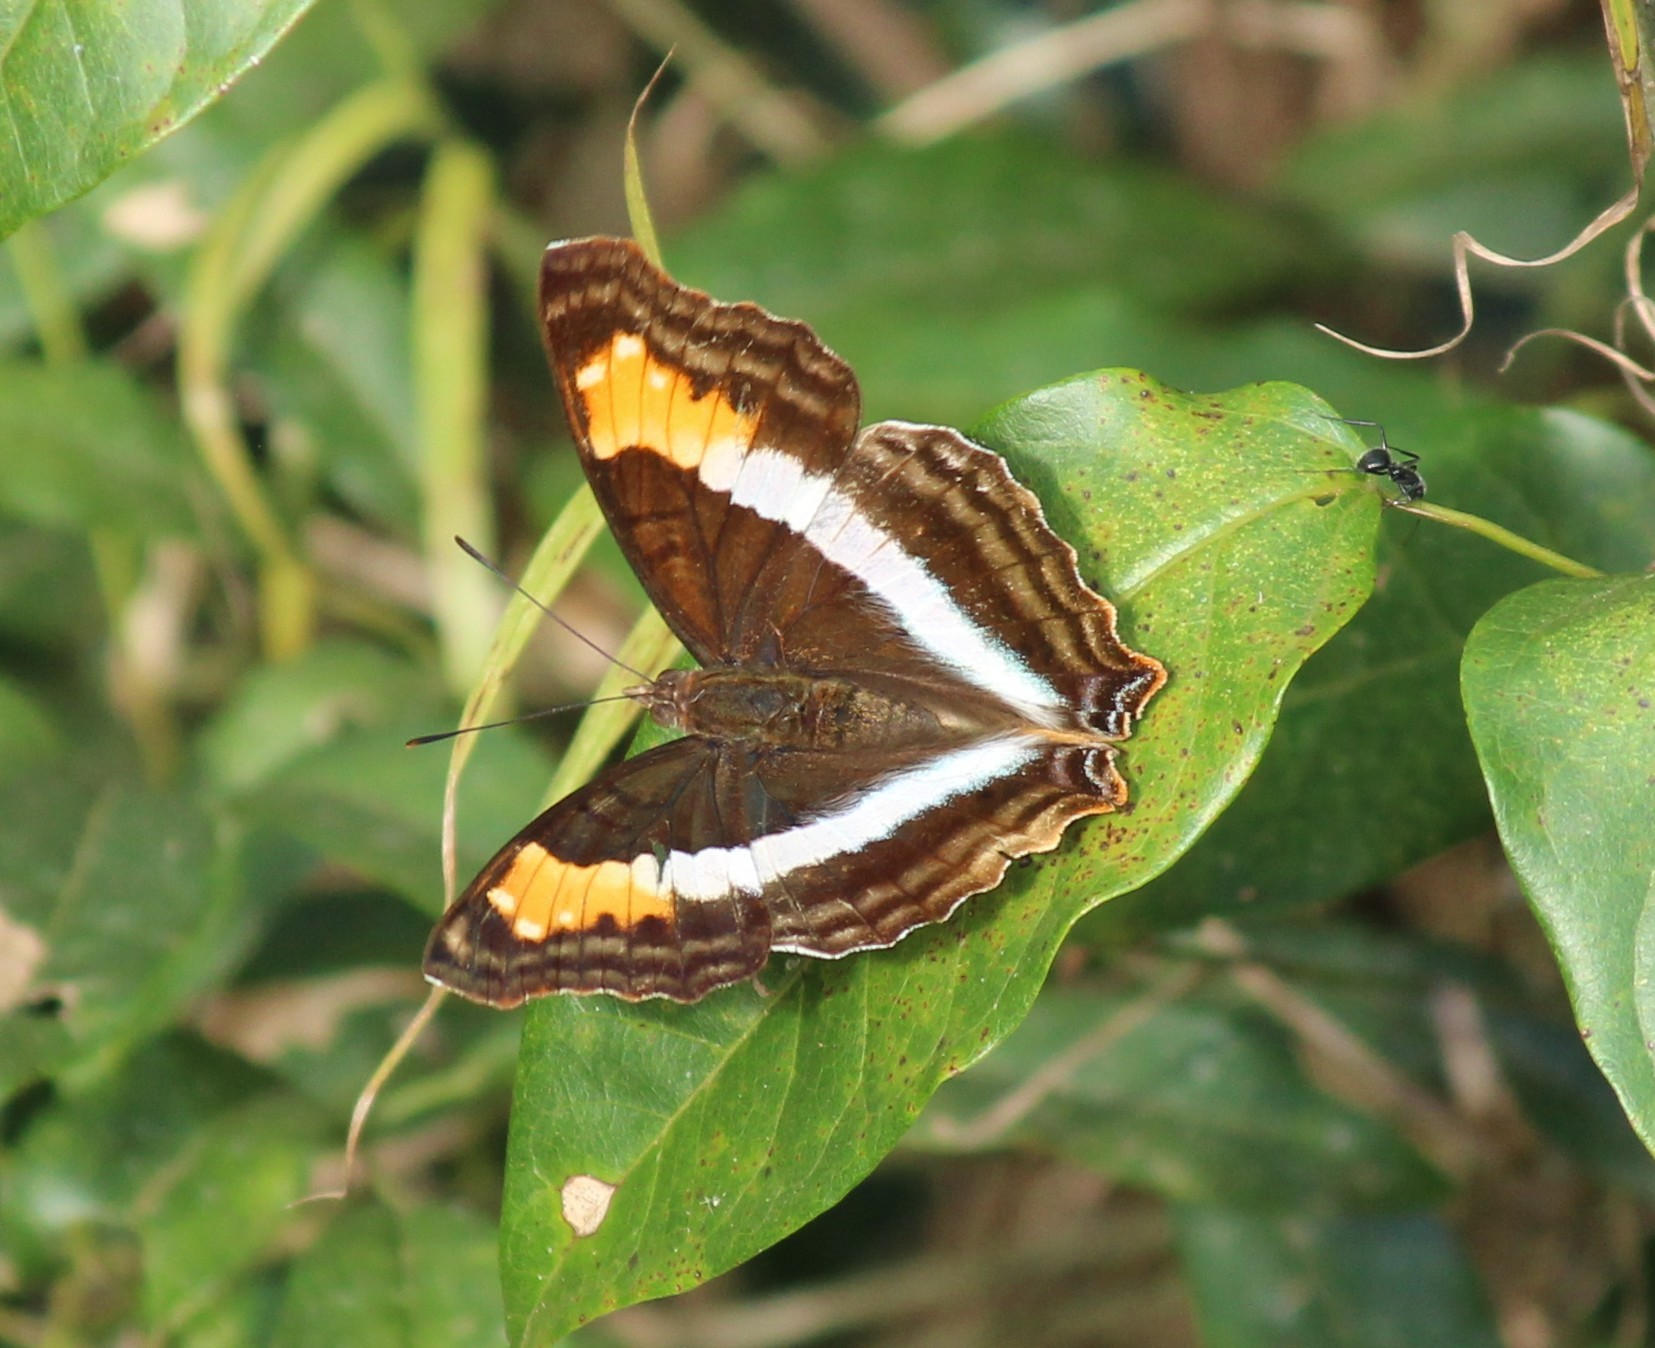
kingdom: Animalia
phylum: Arthropoda
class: Insecta
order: Lepidoptera
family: Nymphalidae
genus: Doxocopa
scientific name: Doxocopa laurentia
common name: Turquoise emperor
